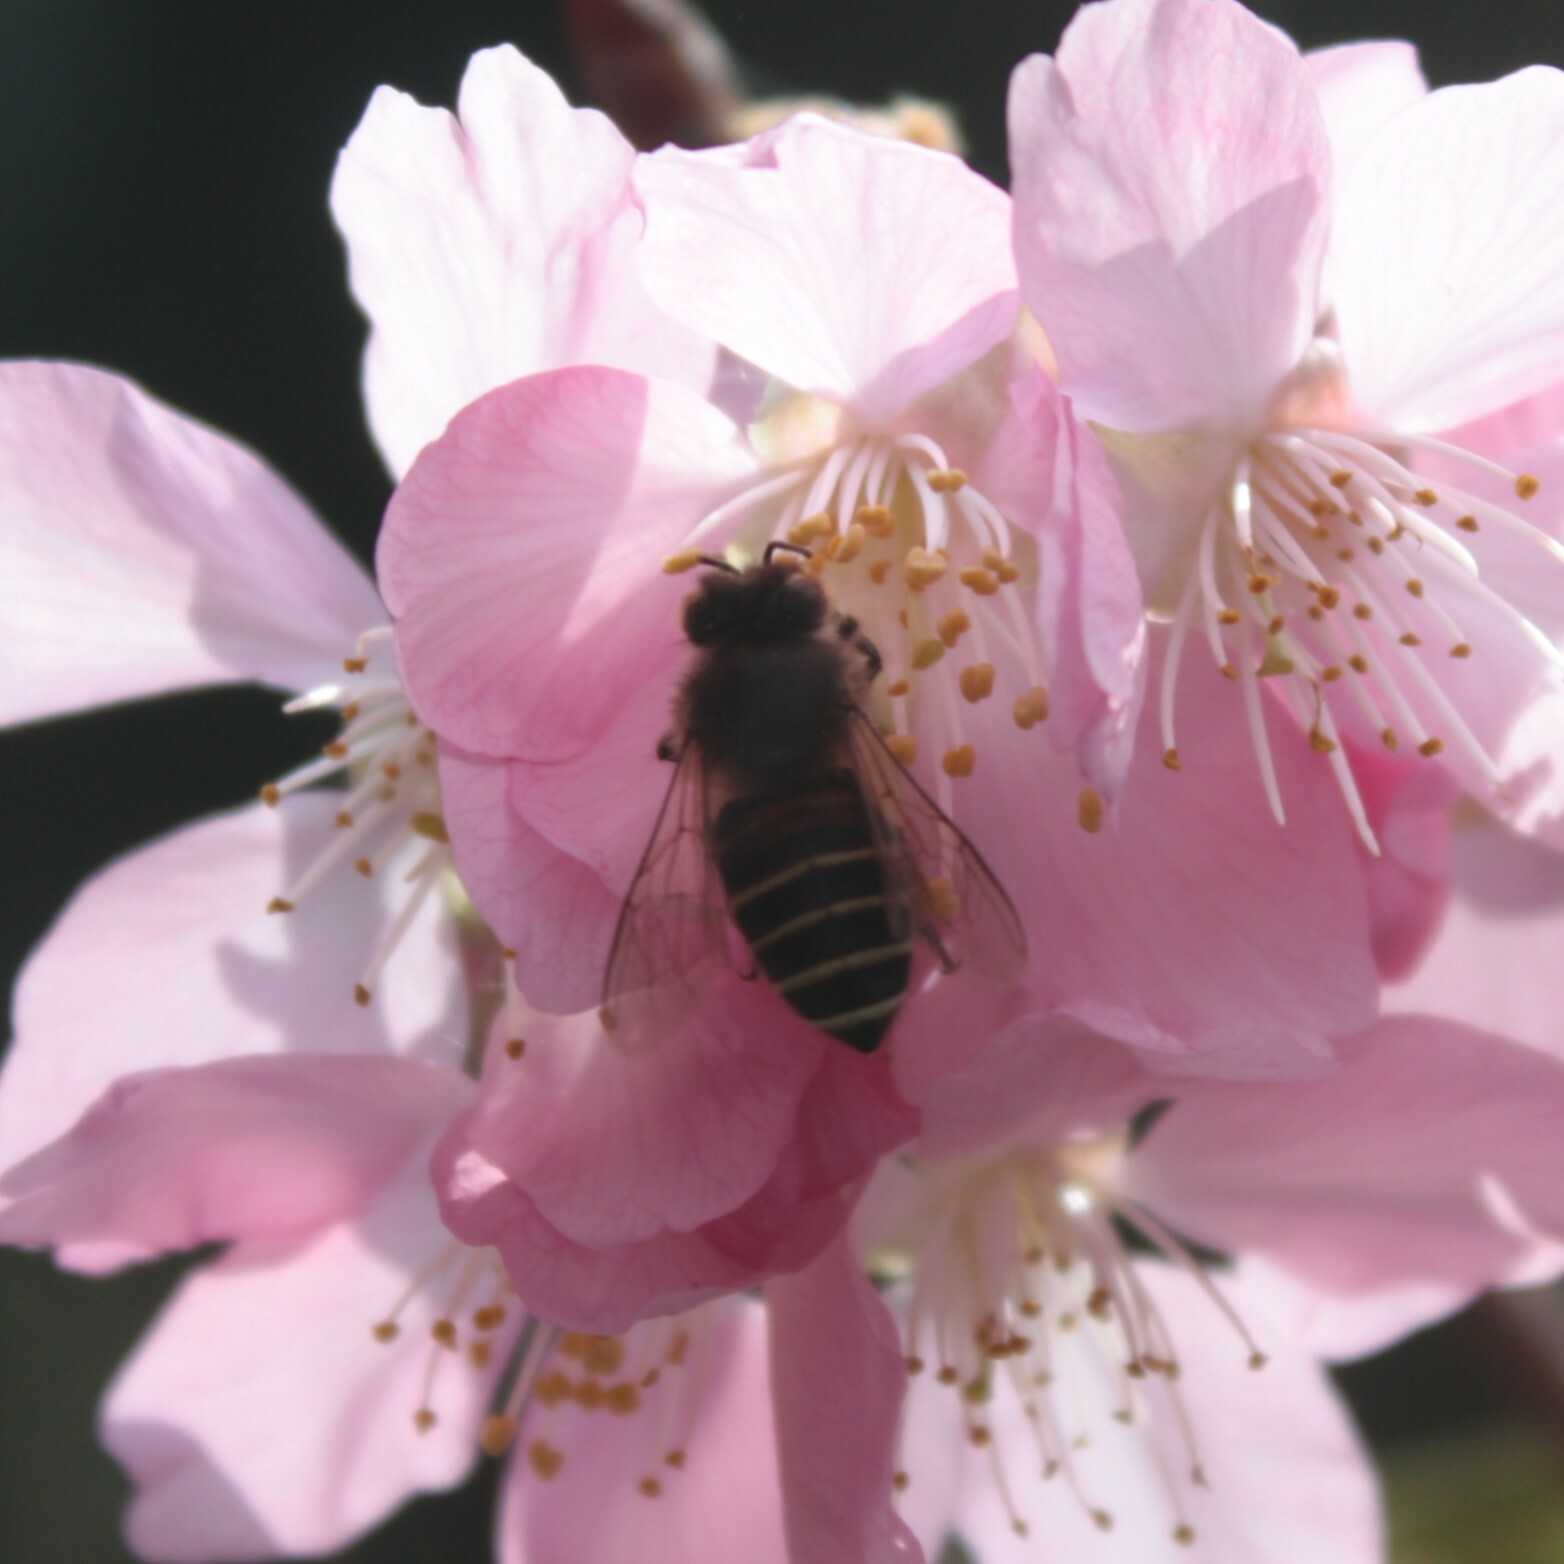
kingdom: Animalia
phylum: Arthropoda
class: Insecta
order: Hymenoptera
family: Apidae
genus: Apis
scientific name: Apis cerana
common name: Honey bee
